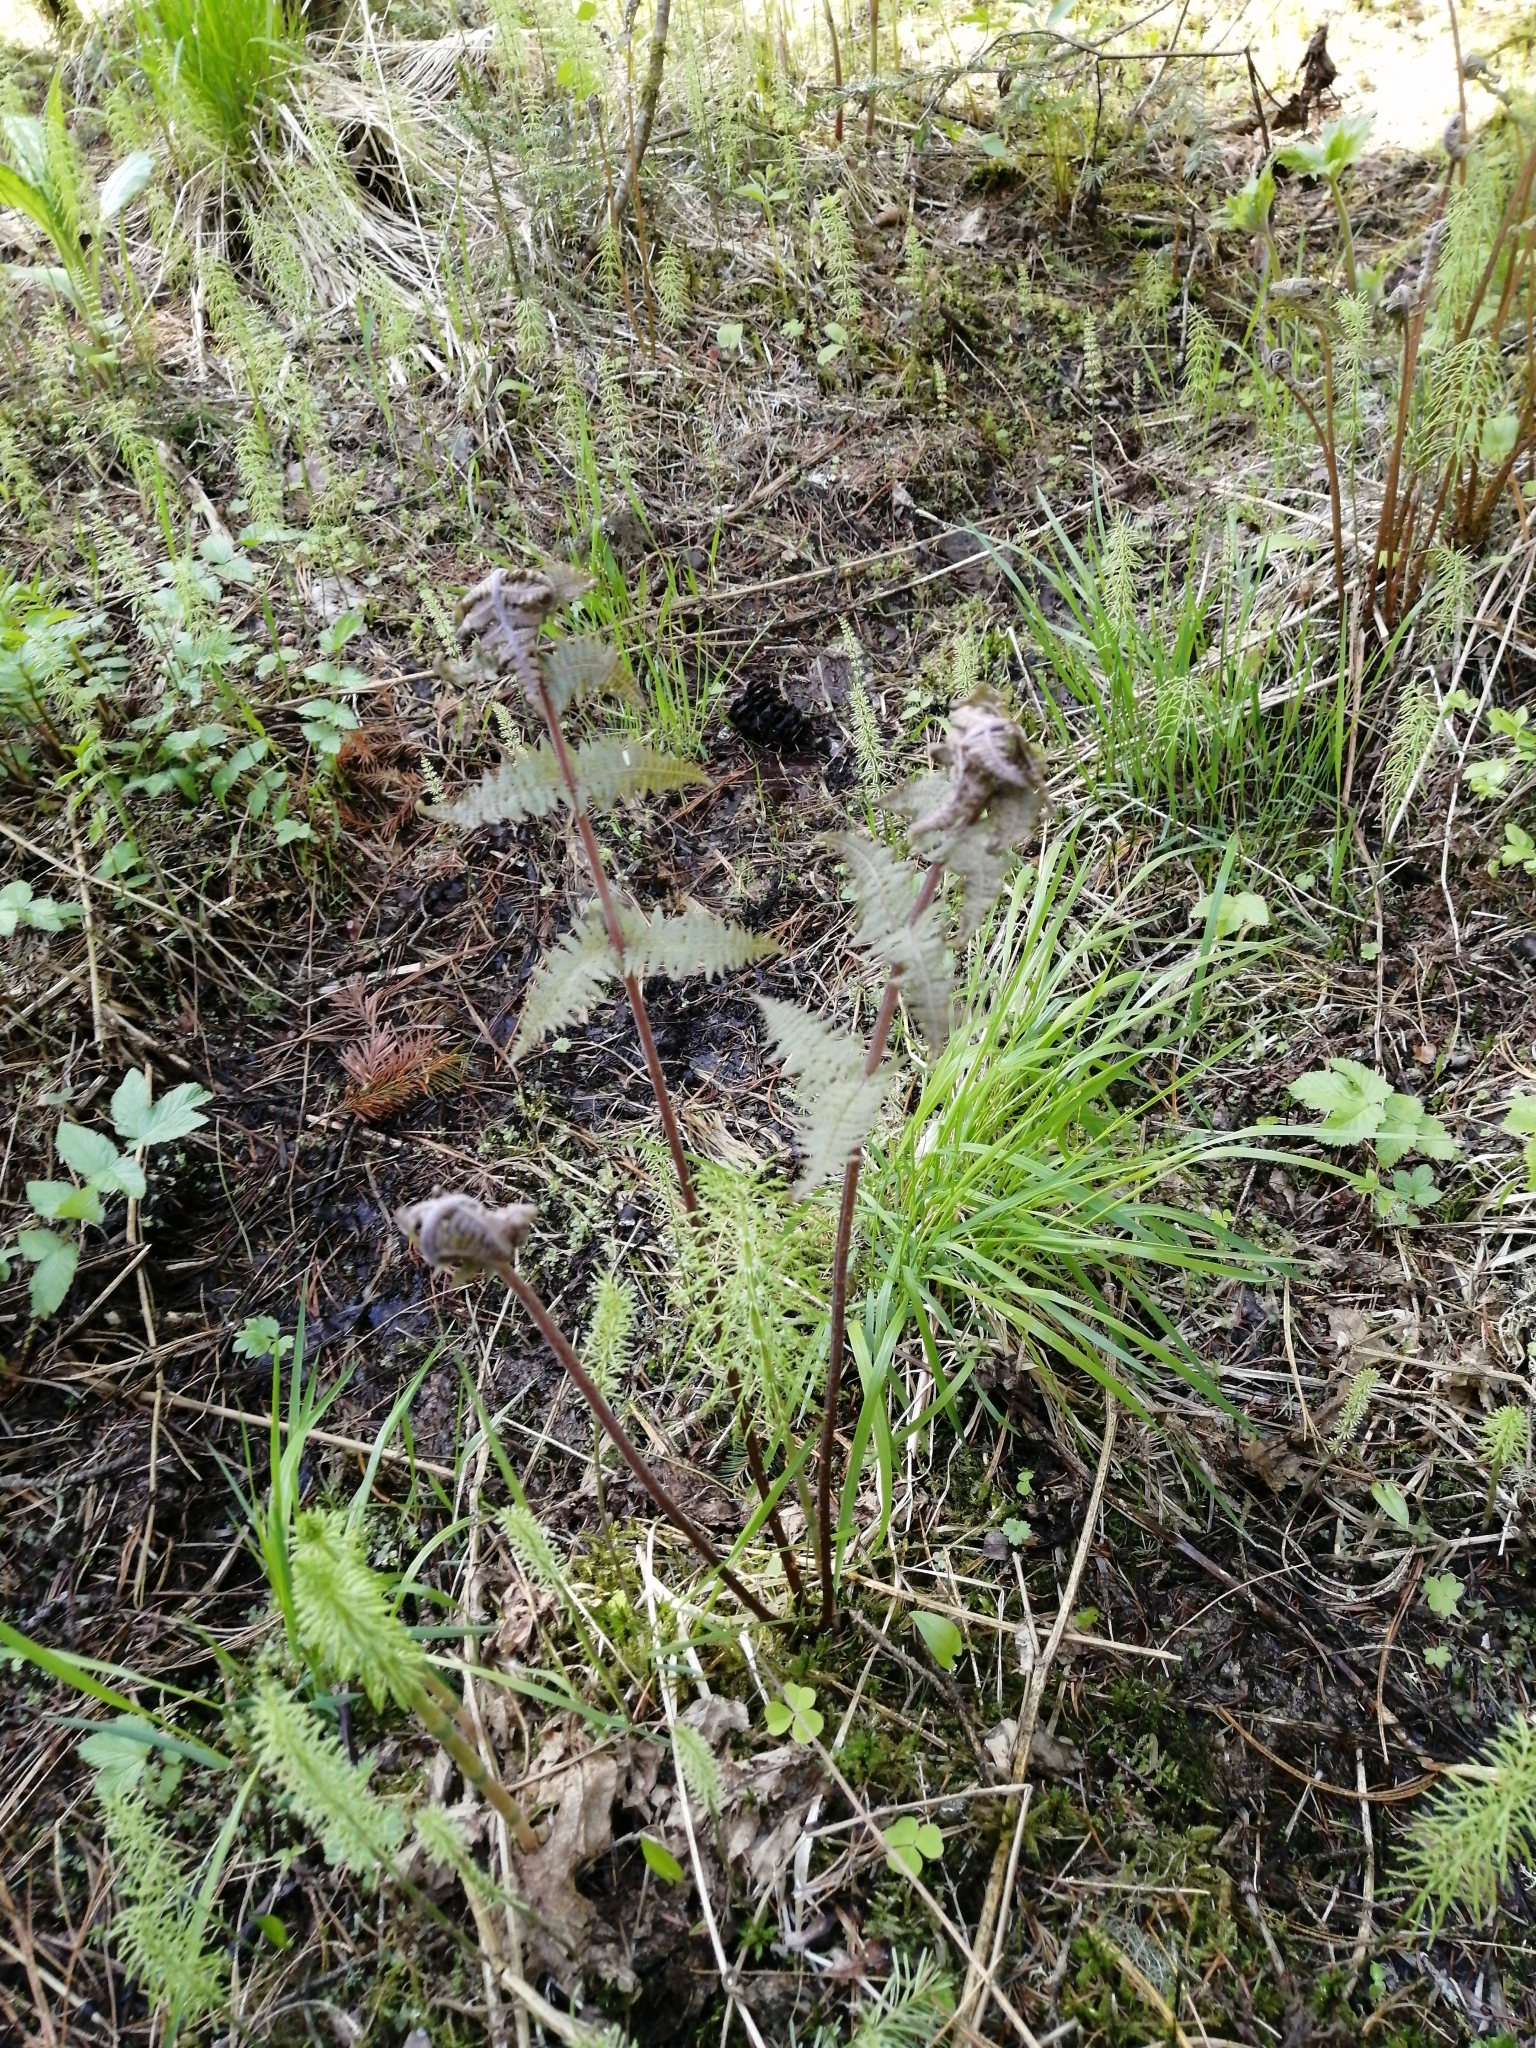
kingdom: Plantae
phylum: Tracheophyta
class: Polypodiopsida
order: Polypodiales
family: Athyriaceae
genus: Athyrium
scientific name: Athyrium filix-femina
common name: Lady fern
